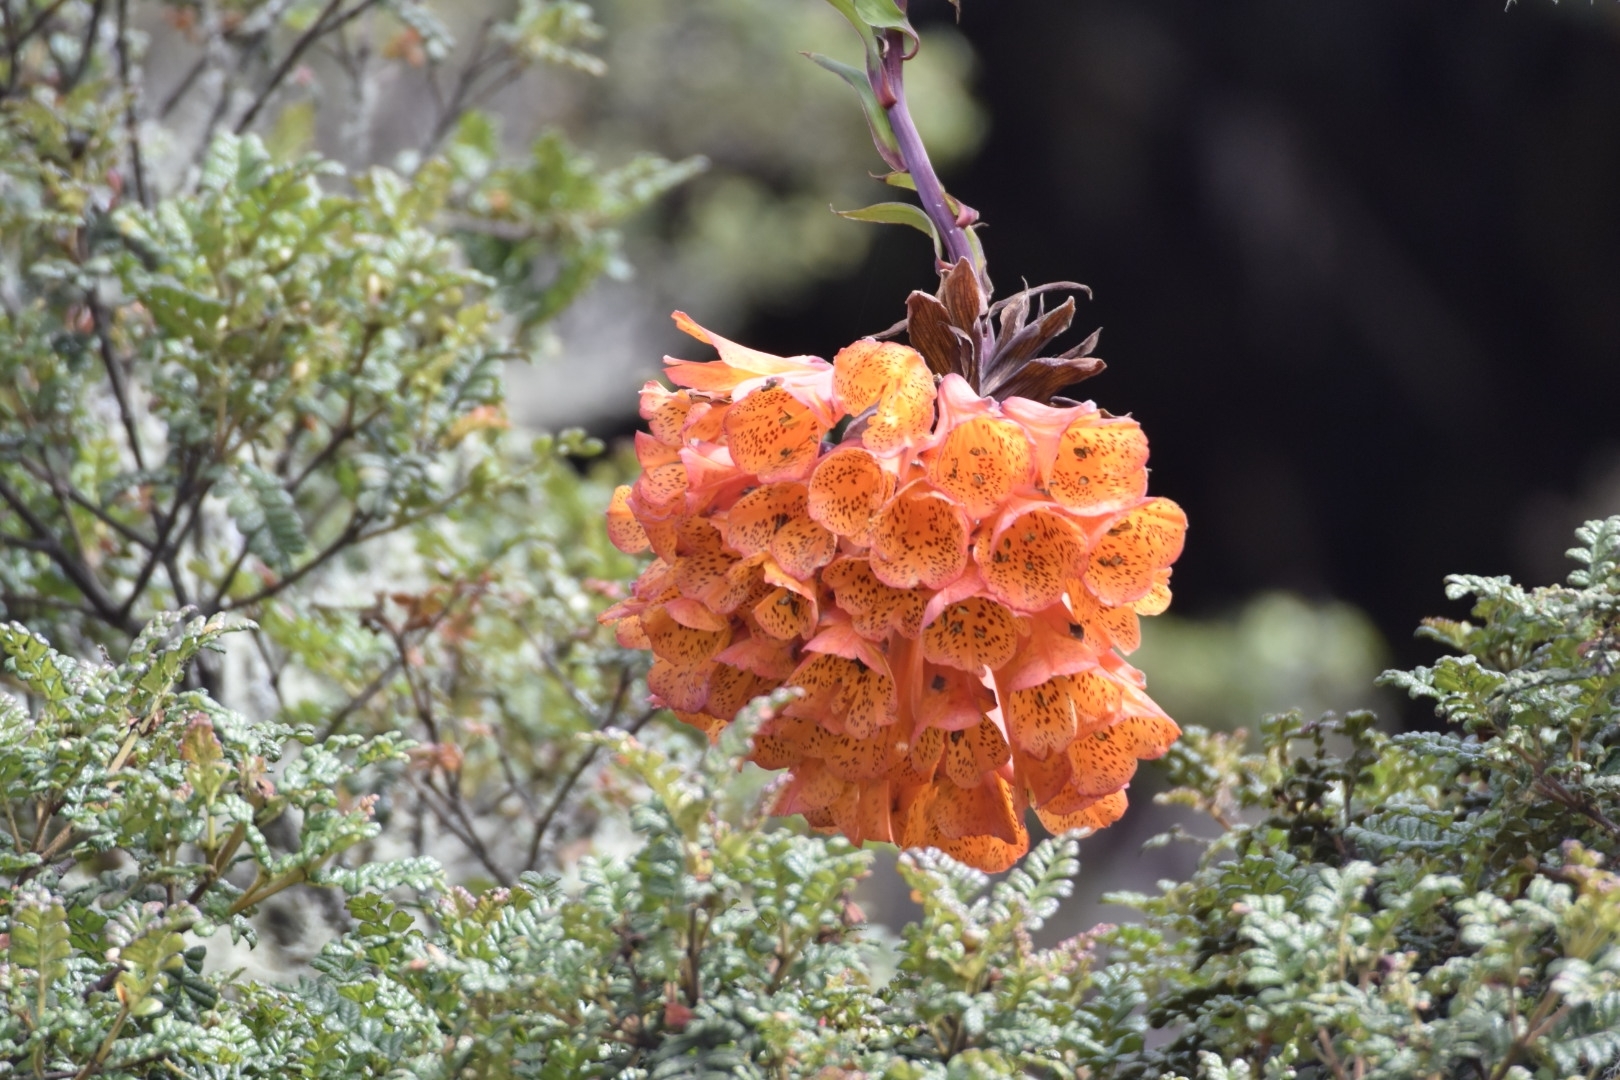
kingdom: Plantae
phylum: Tracheophyta
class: Liliopsida
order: Liliales
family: Alstroemeriaceae
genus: Bomarea
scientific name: Bomarea multiflora
